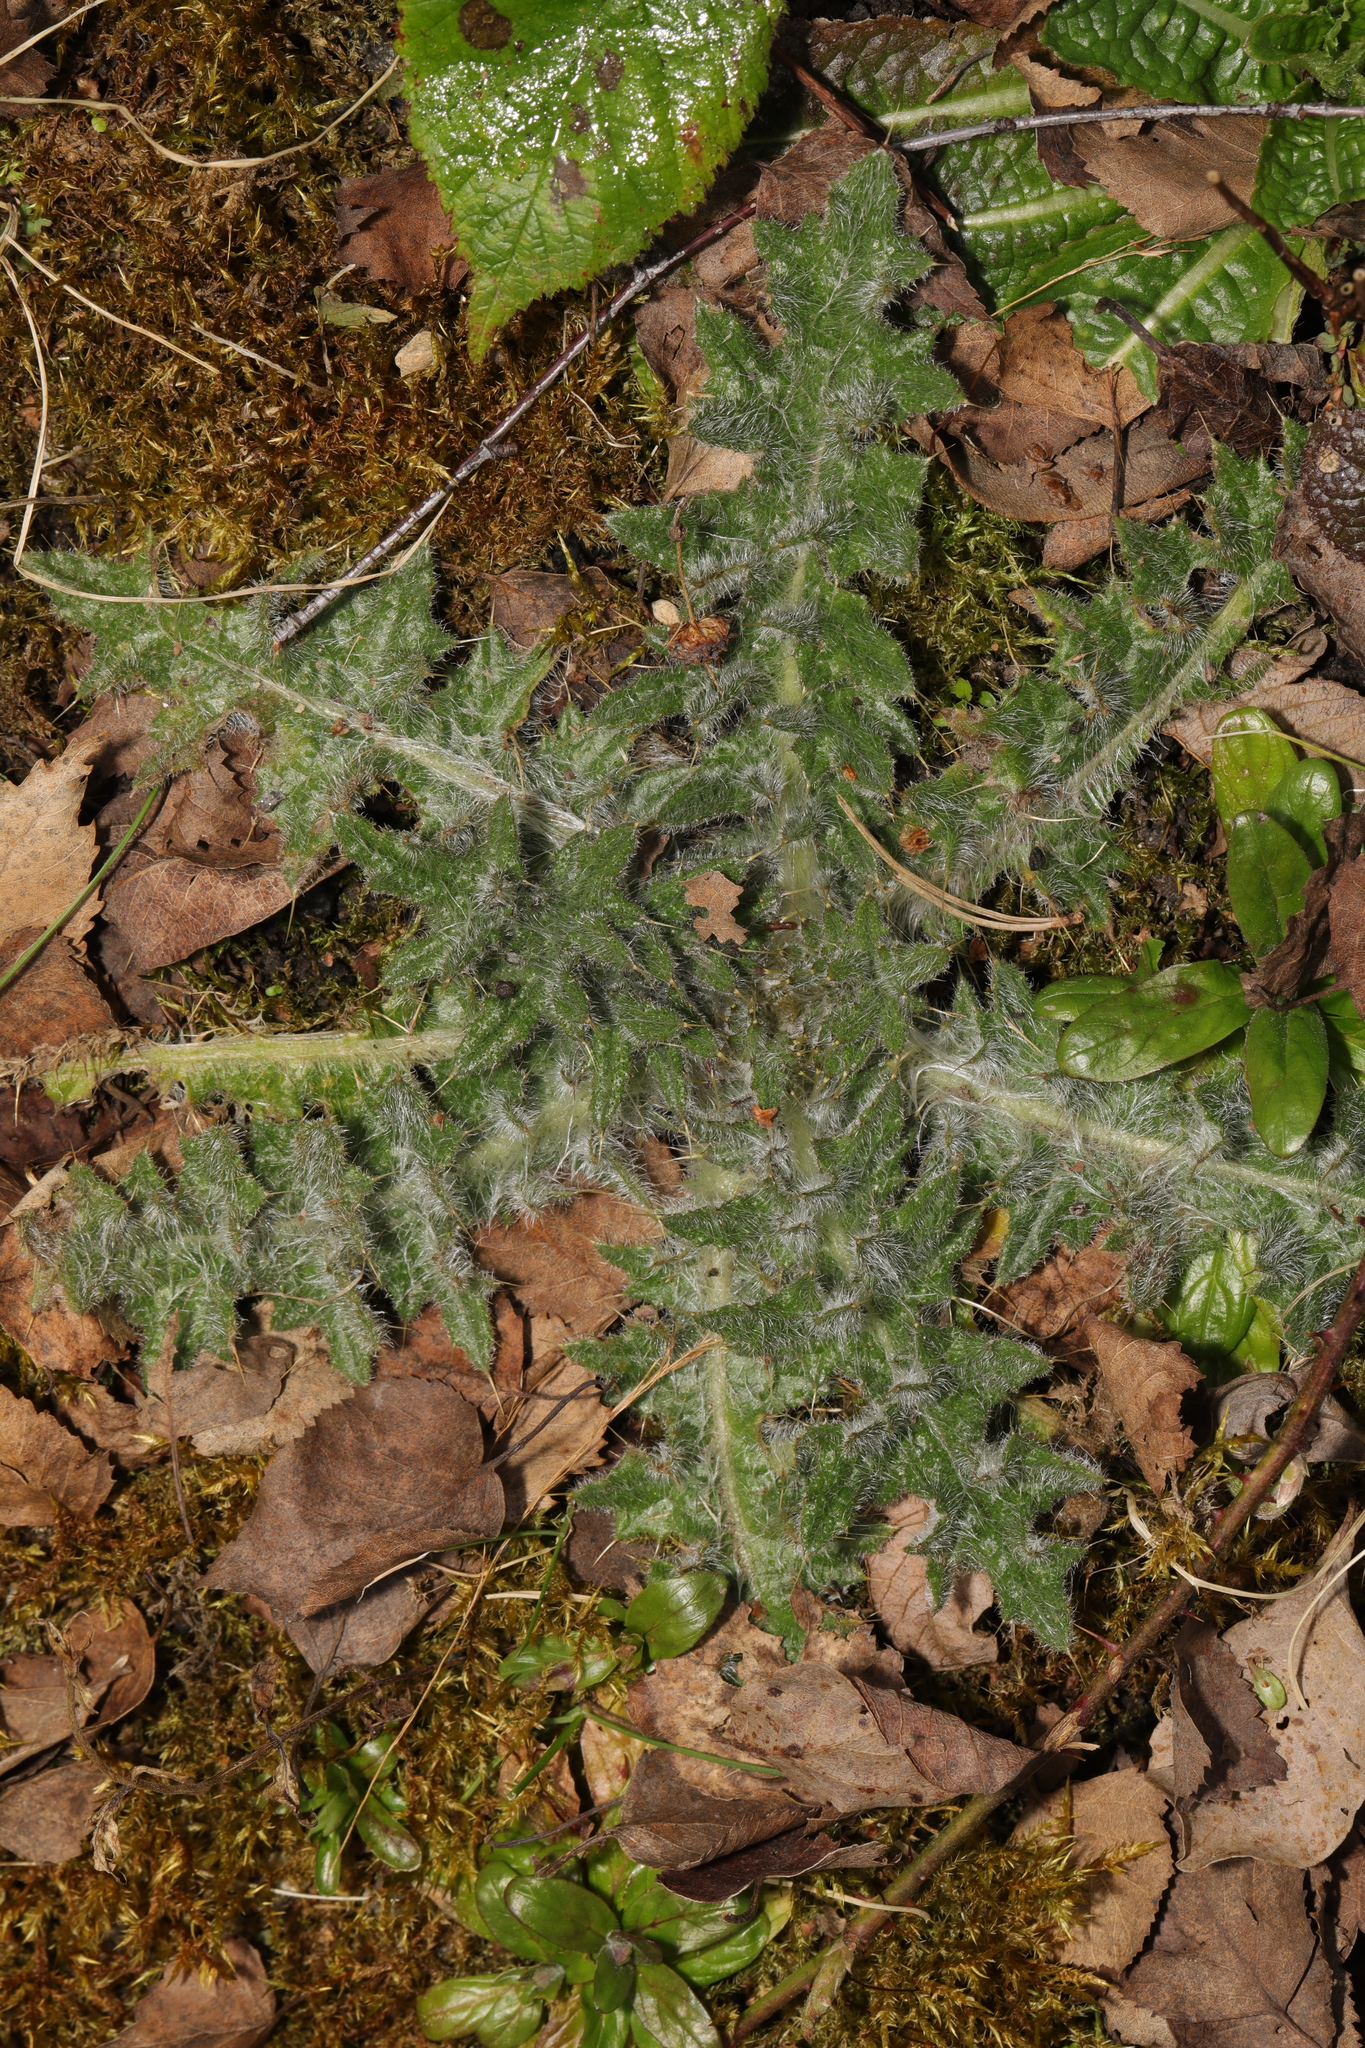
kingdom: Plantae
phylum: Tracheophyta
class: Magnoliopsida
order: Asterales
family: Asteraceae
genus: Cirsium
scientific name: Cirsium vulgare
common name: Bull thistle
